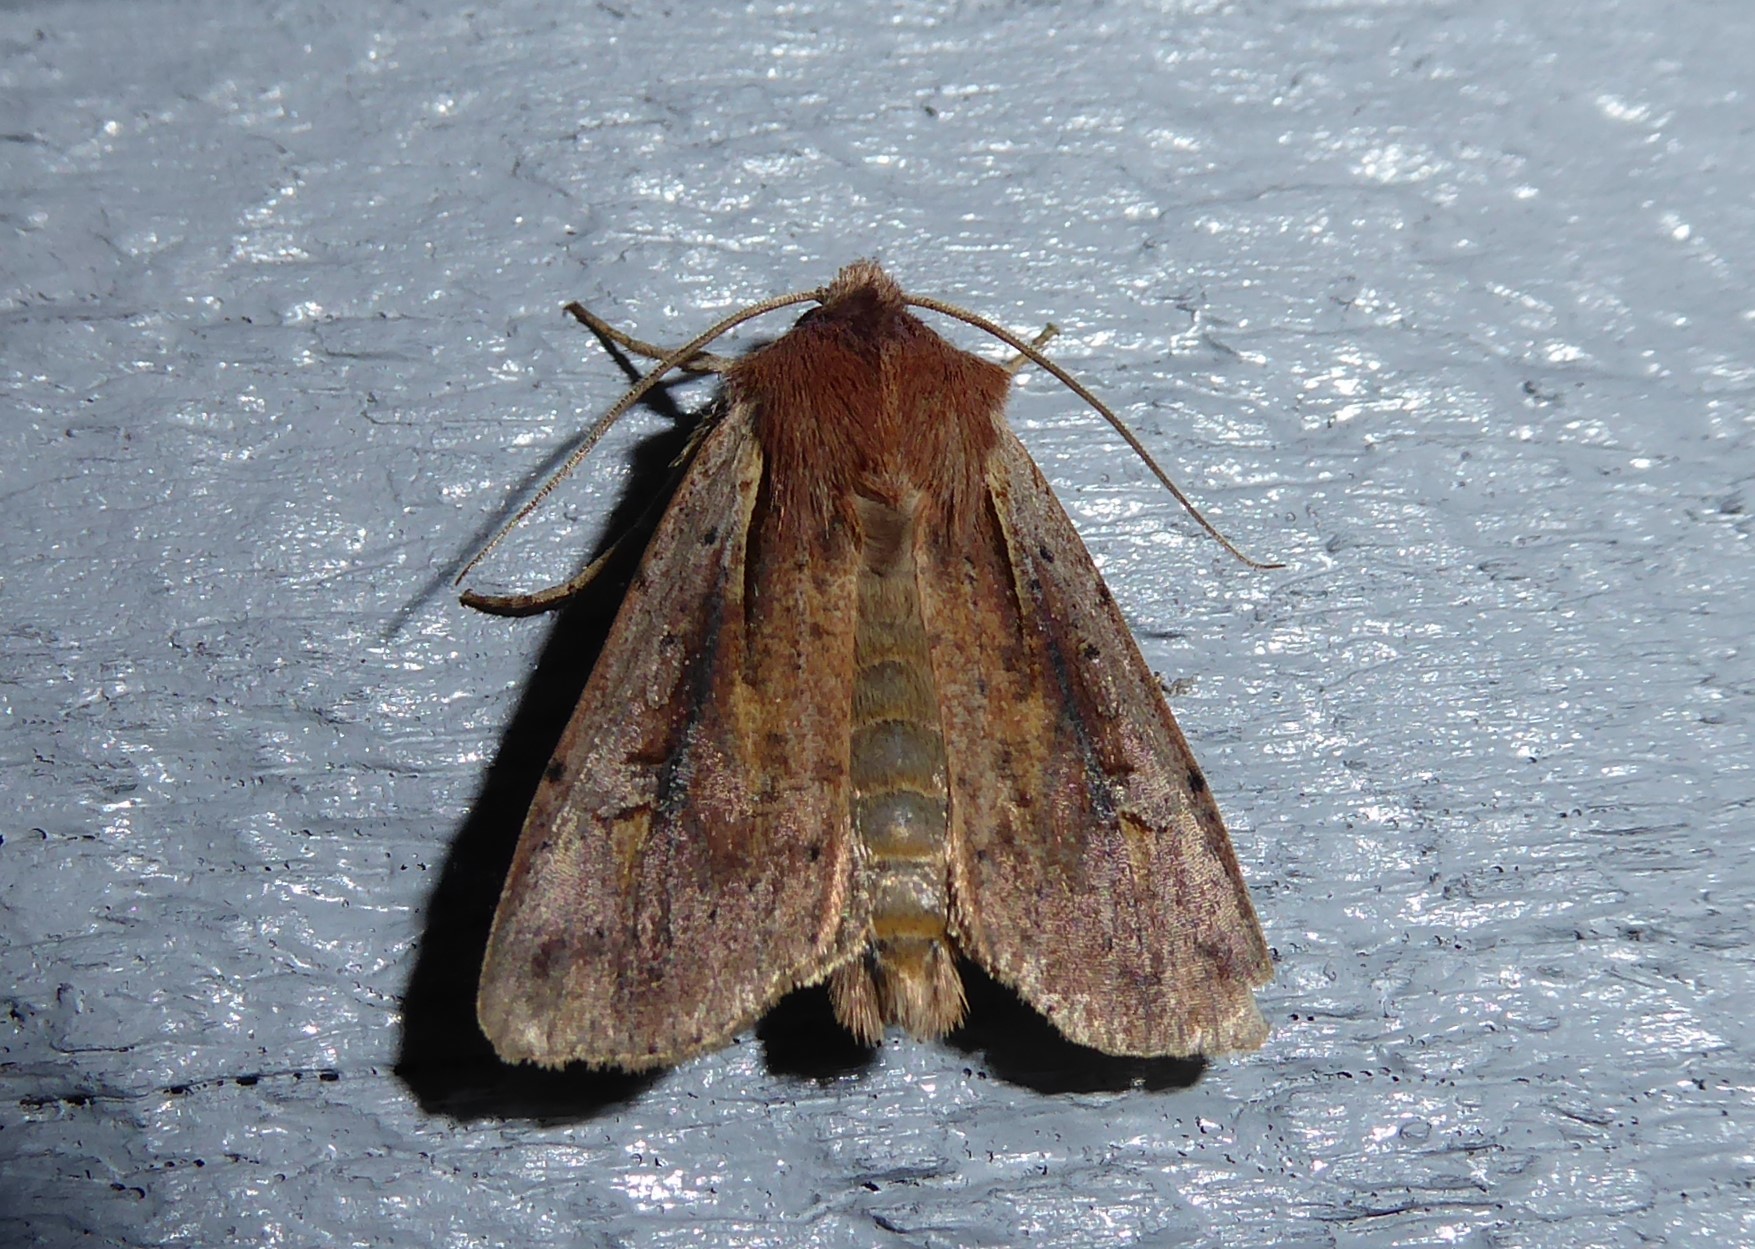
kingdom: Animalia
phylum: Arthropoda
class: Insecta
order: Lepidoptera
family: Noctuidae
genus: Ichneutica
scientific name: Ichneutica atristriga
